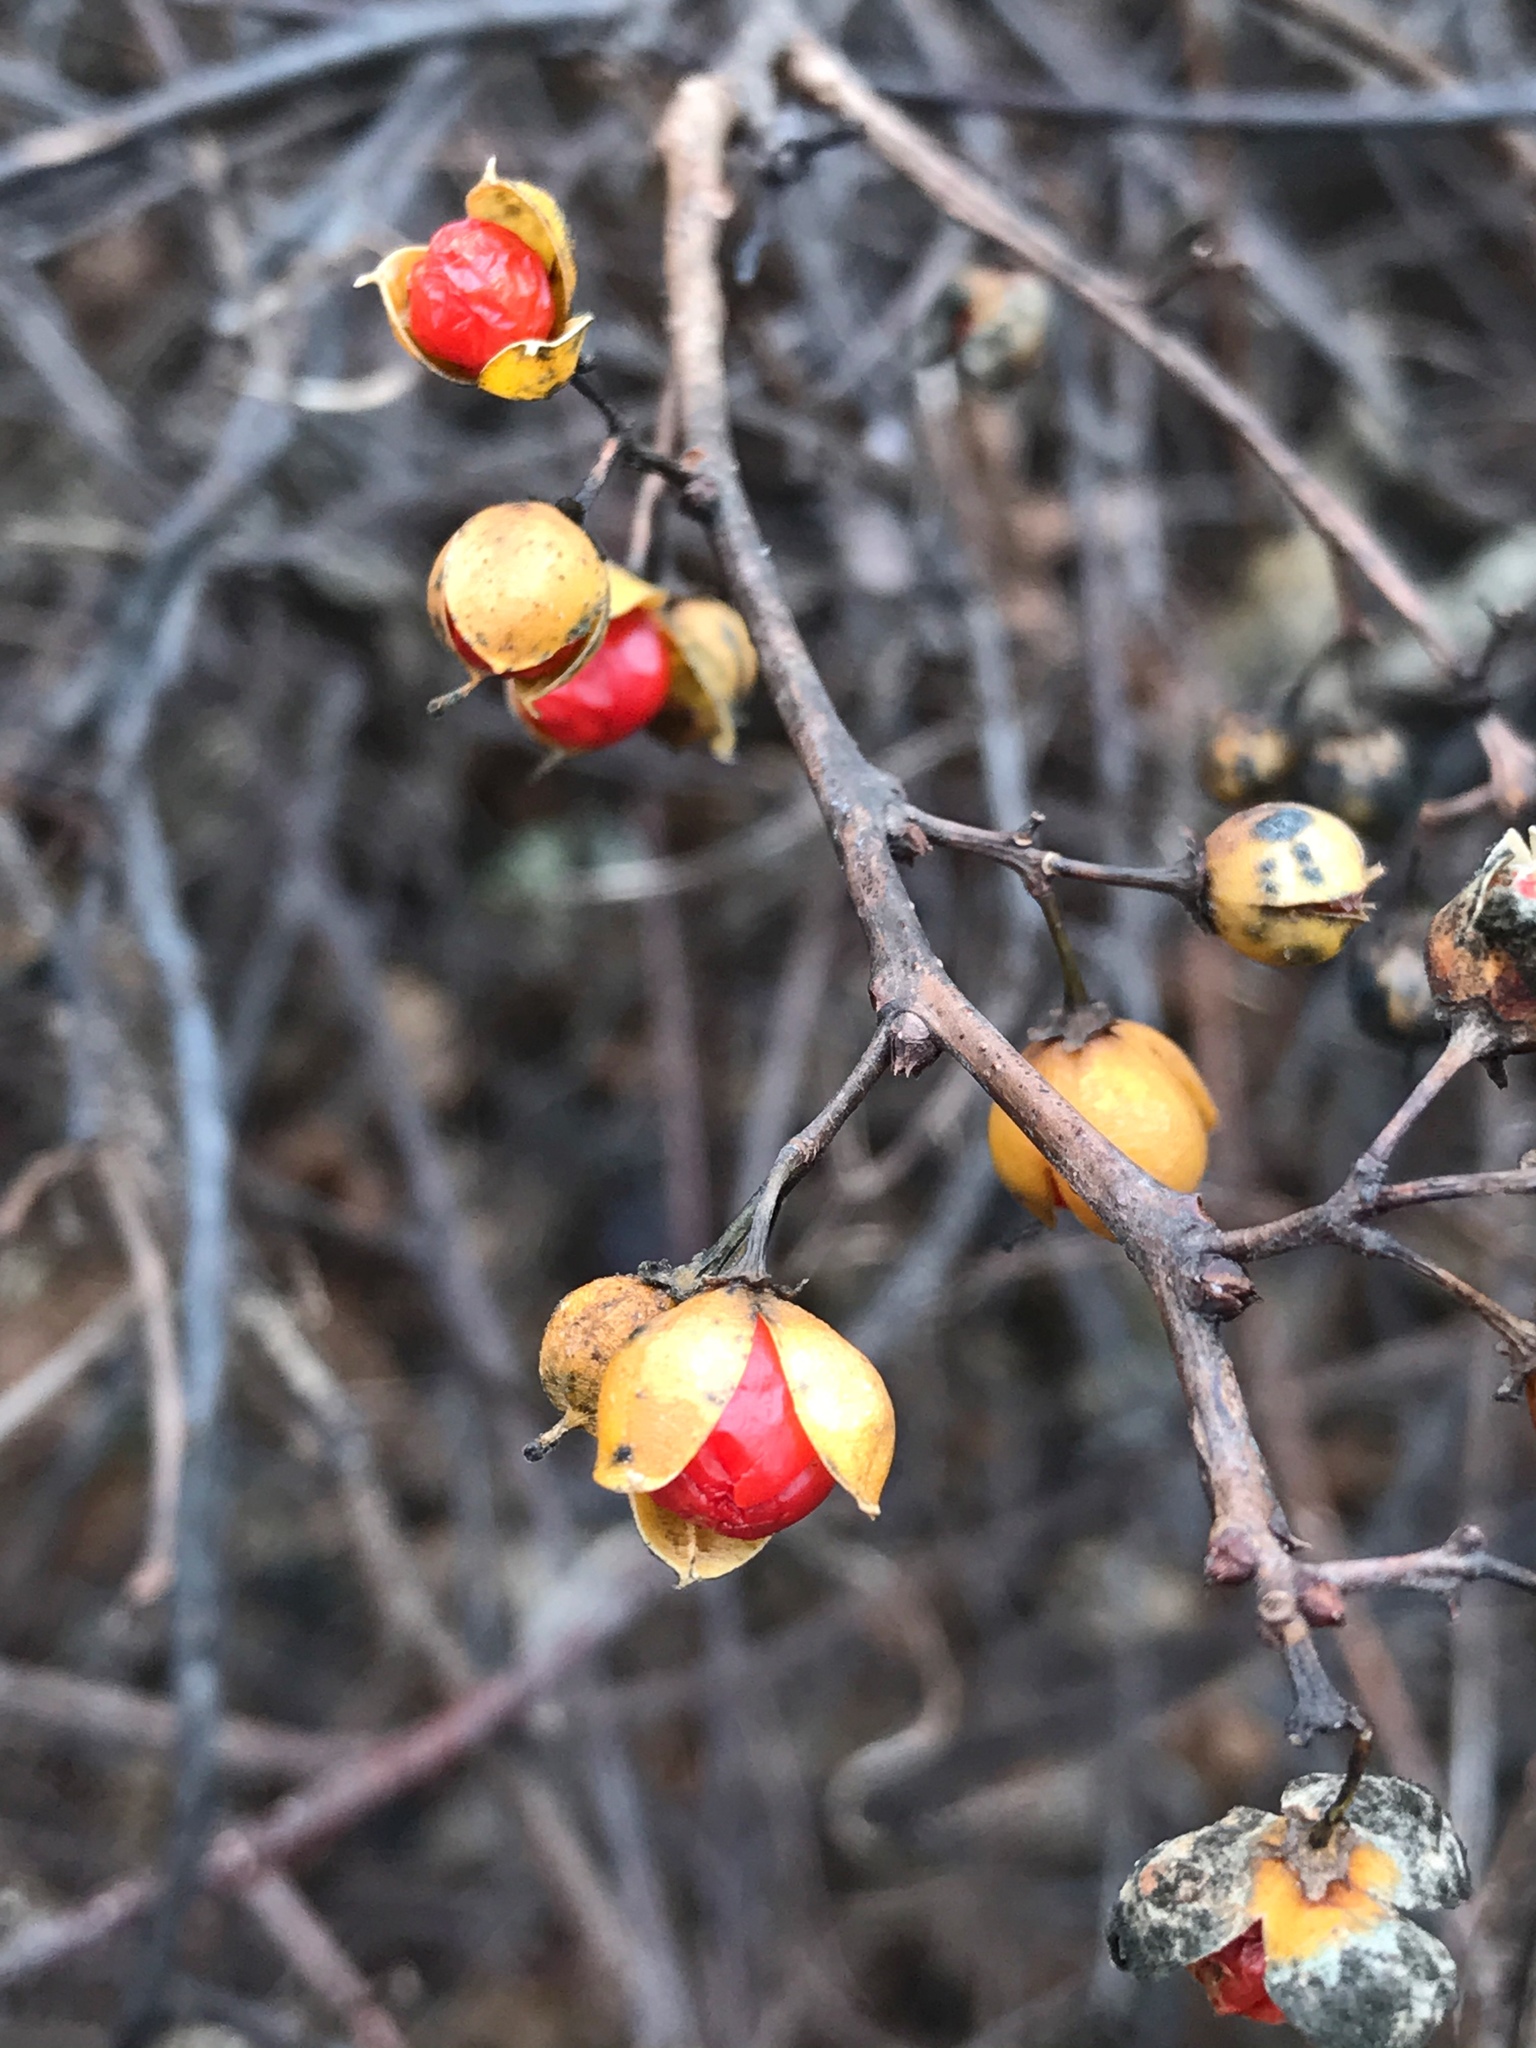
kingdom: Plantae
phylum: Tracheophyta
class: Magnoliopsida
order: Celastrales
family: Celastraceae
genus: Celastrus
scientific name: Celastrus orbiculatus
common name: Oriental bittersweet
